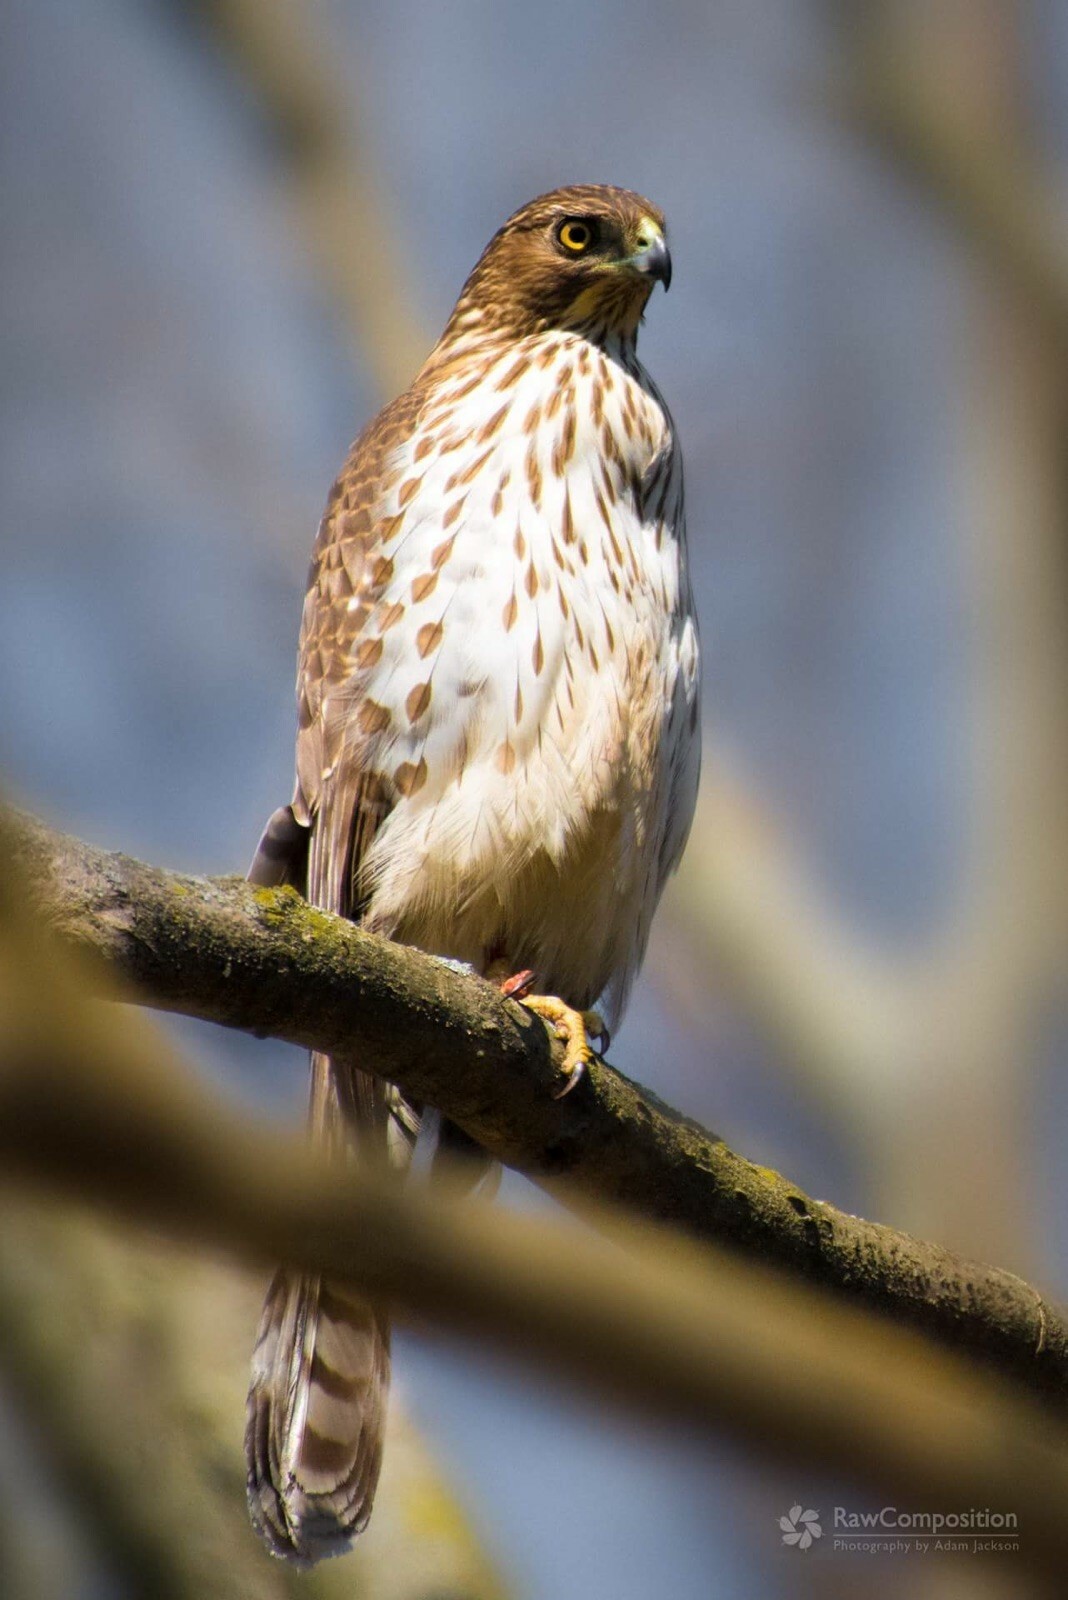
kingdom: Animalia
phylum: Chordata
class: Aves
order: Accipitriformes
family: Accipitridae
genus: Accipiter
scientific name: Accipiter cooperii
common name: Cooper's hawk
